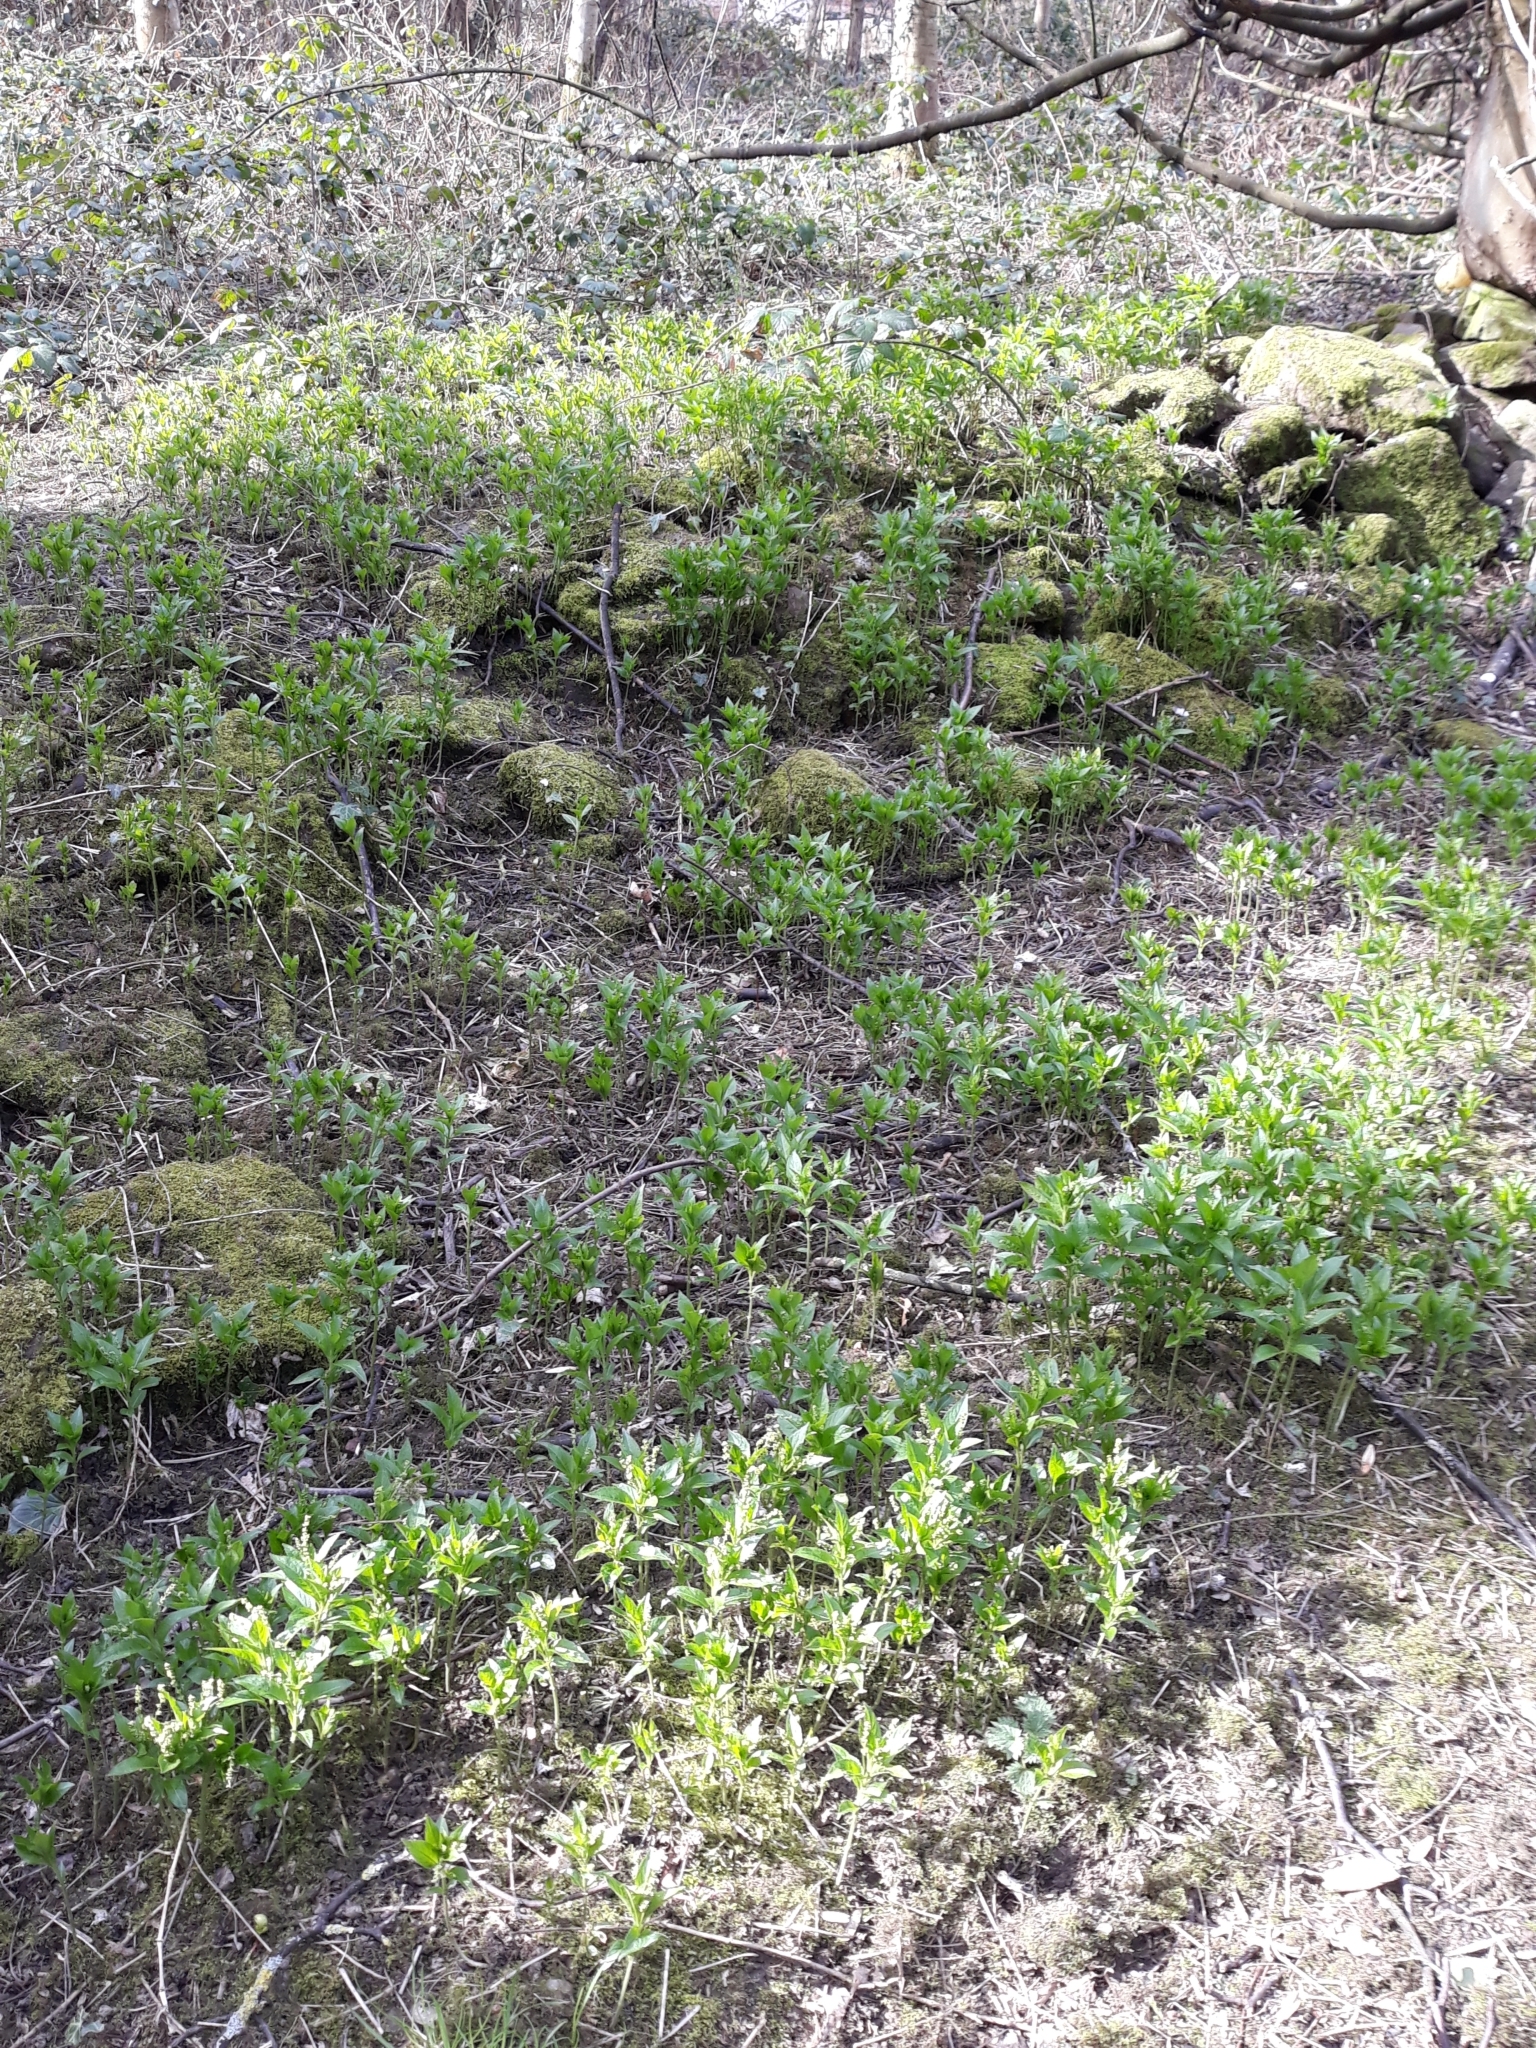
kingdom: Plantae
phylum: Tracheophyta
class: Magnoliopsida
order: Malpighiales
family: Euphorbiaceae
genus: Mercurialis
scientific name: Mercurialis perennis
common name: Dog mercury
